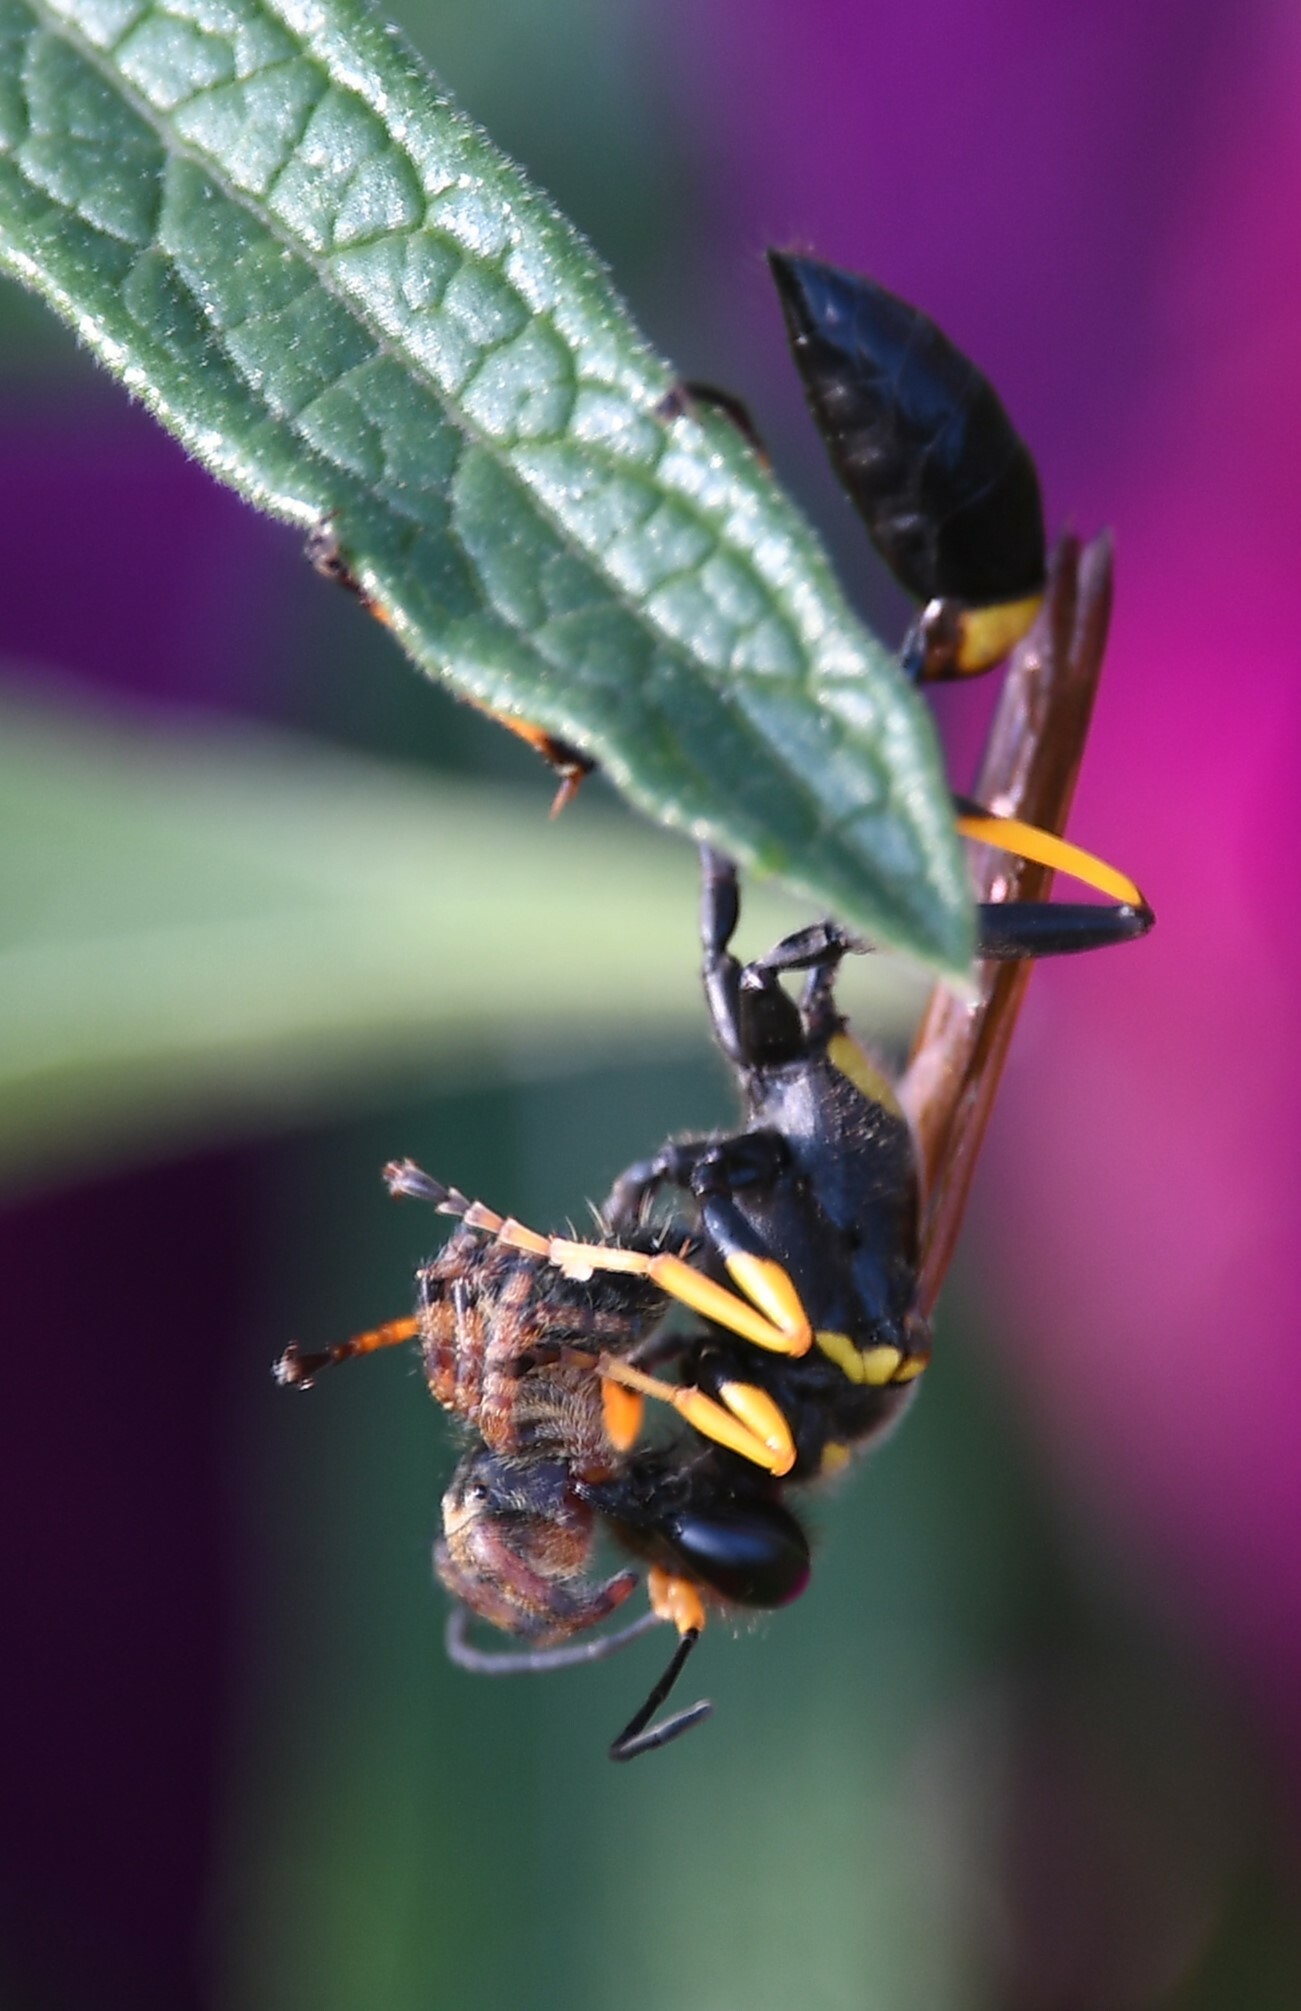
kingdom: Animalia
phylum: Arthropoda
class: Insecta
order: Hymenoptera
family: Sphecidae
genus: Sceliphron
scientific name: Sceliphron caementarium
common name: Mud dauber
